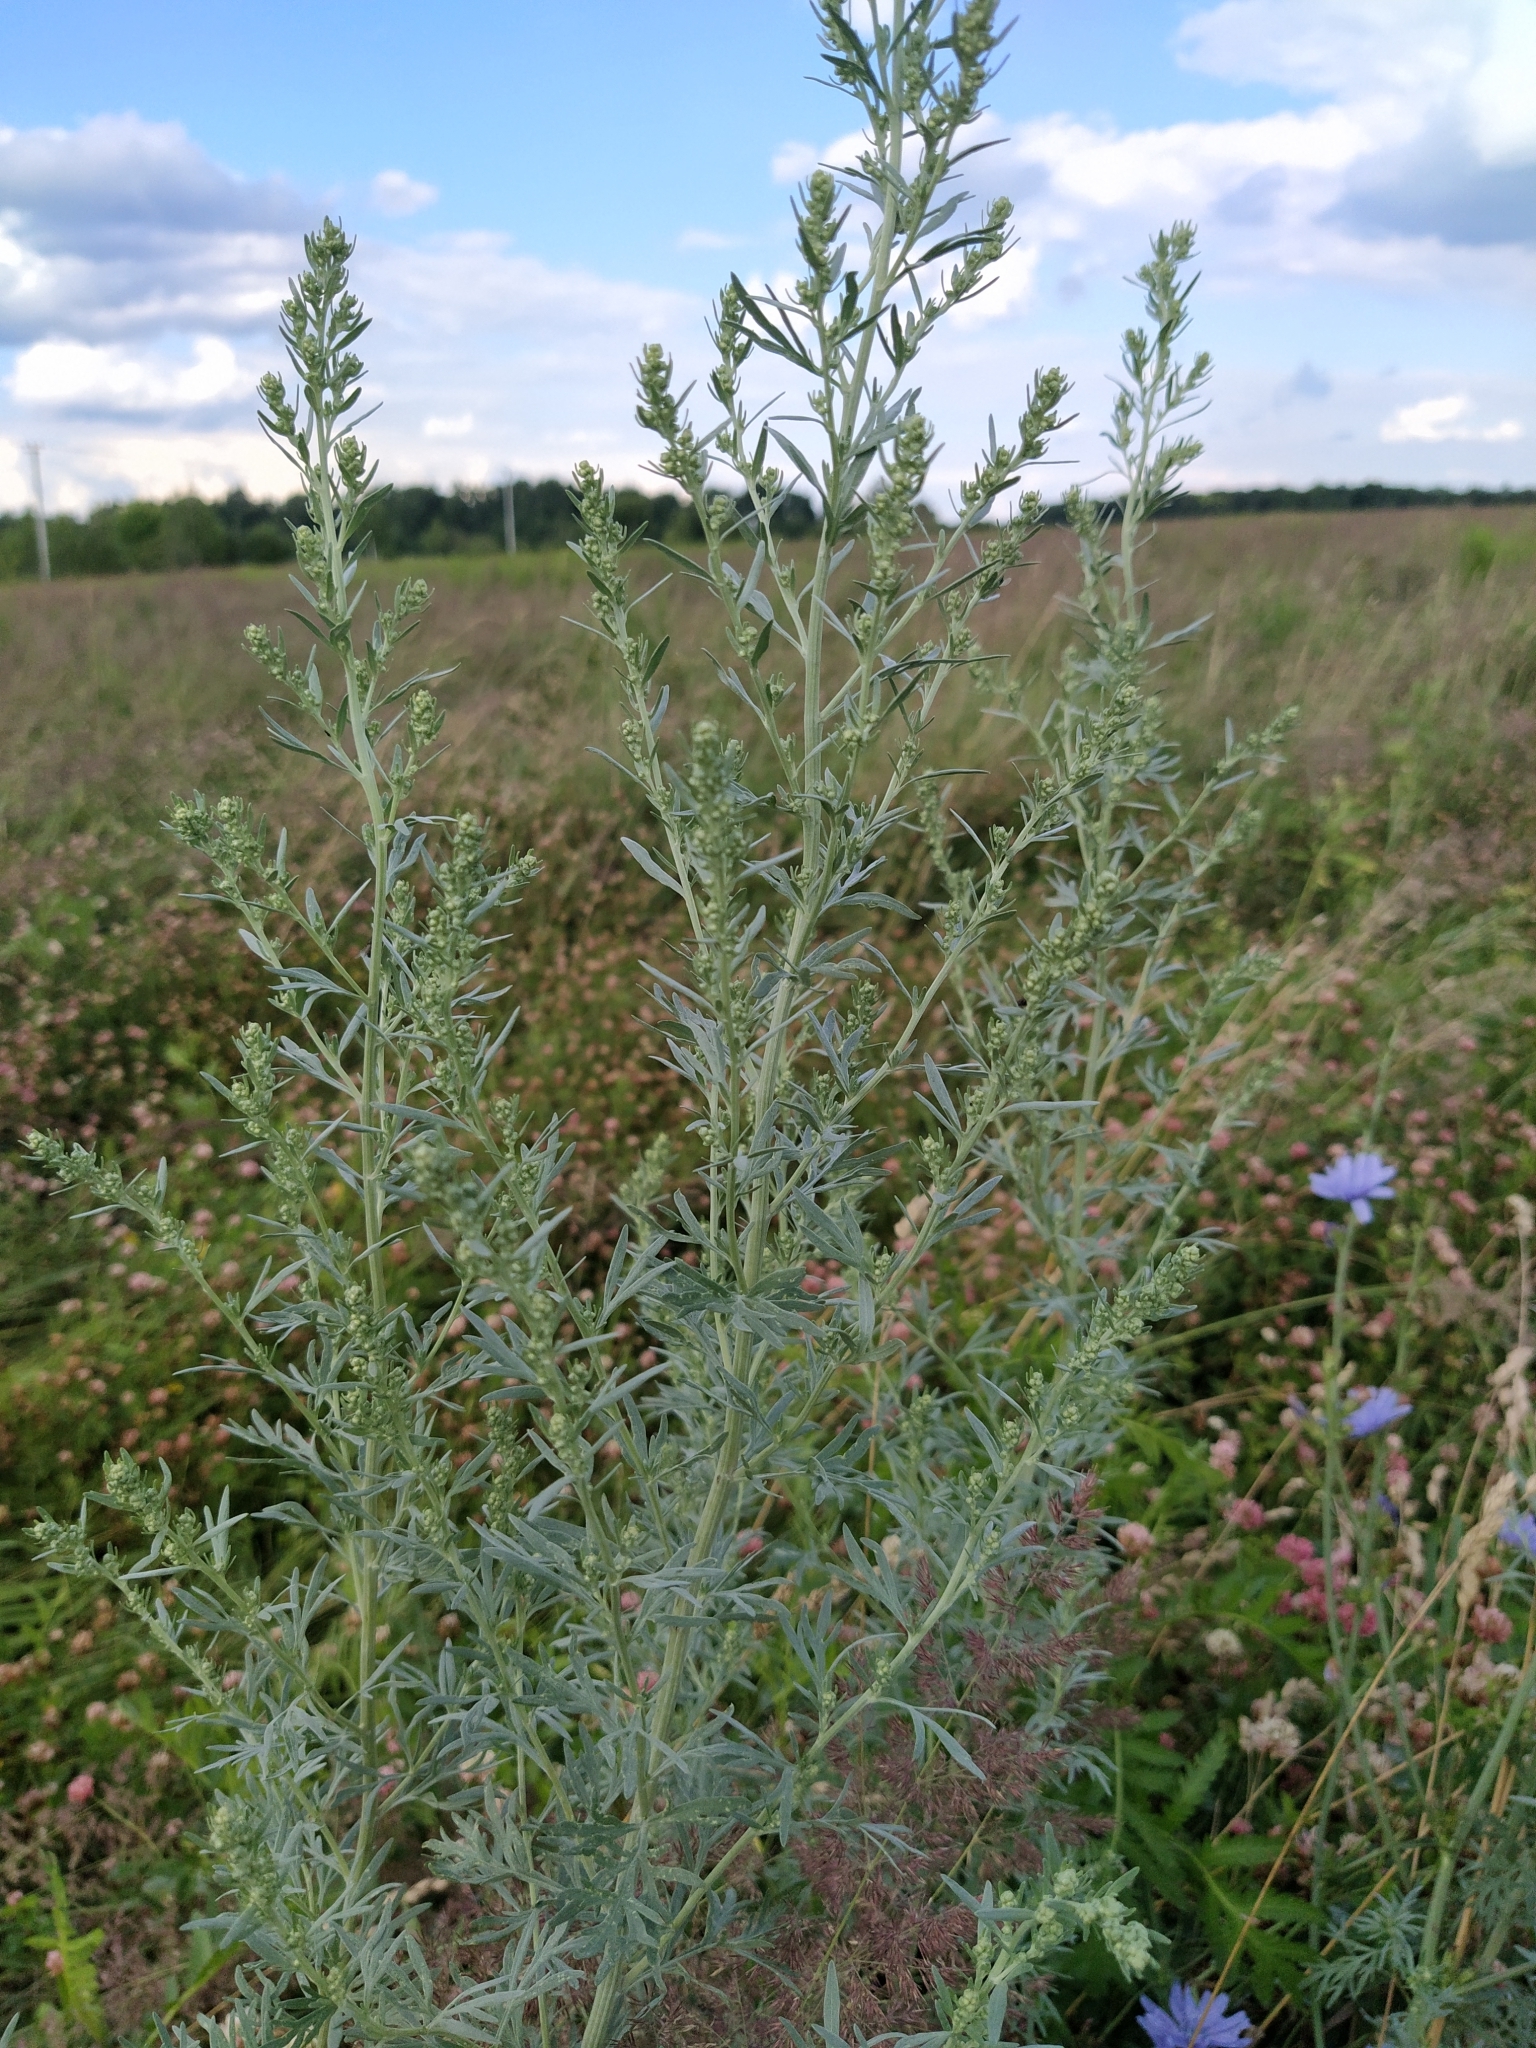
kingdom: Plantae
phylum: Tracheophyta
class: Magnoliopsida
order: Asterales
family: Asteraceae
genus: Artemisia
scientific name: Artemisia absinthium
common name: Wormwood
